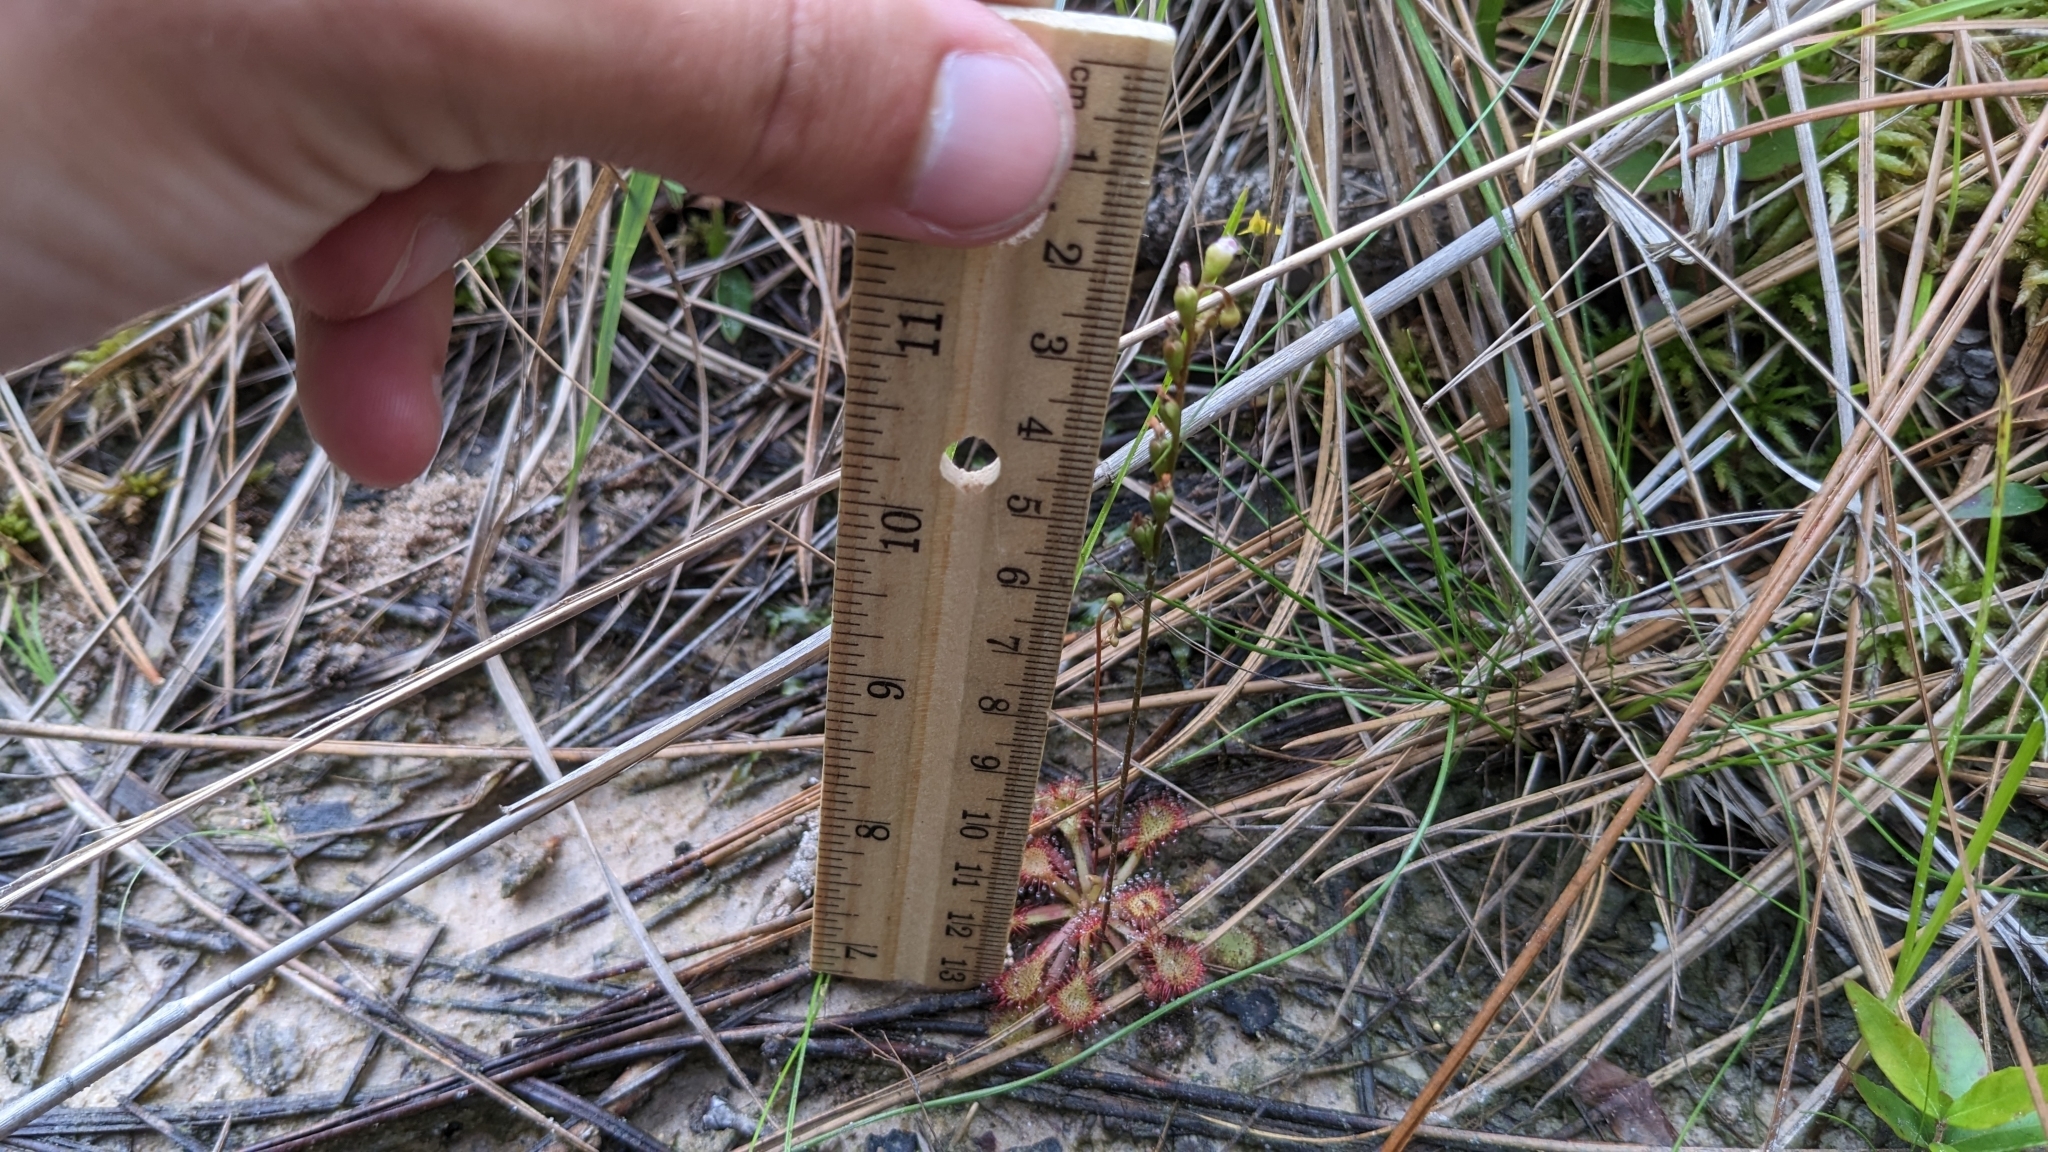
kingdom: Plantae
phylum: Tracheophyta
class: Magnoliopsida
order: Caryophyllales
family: Droseraceae
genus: Drosera
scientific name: Drosera capillaris
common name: Pink sundew
